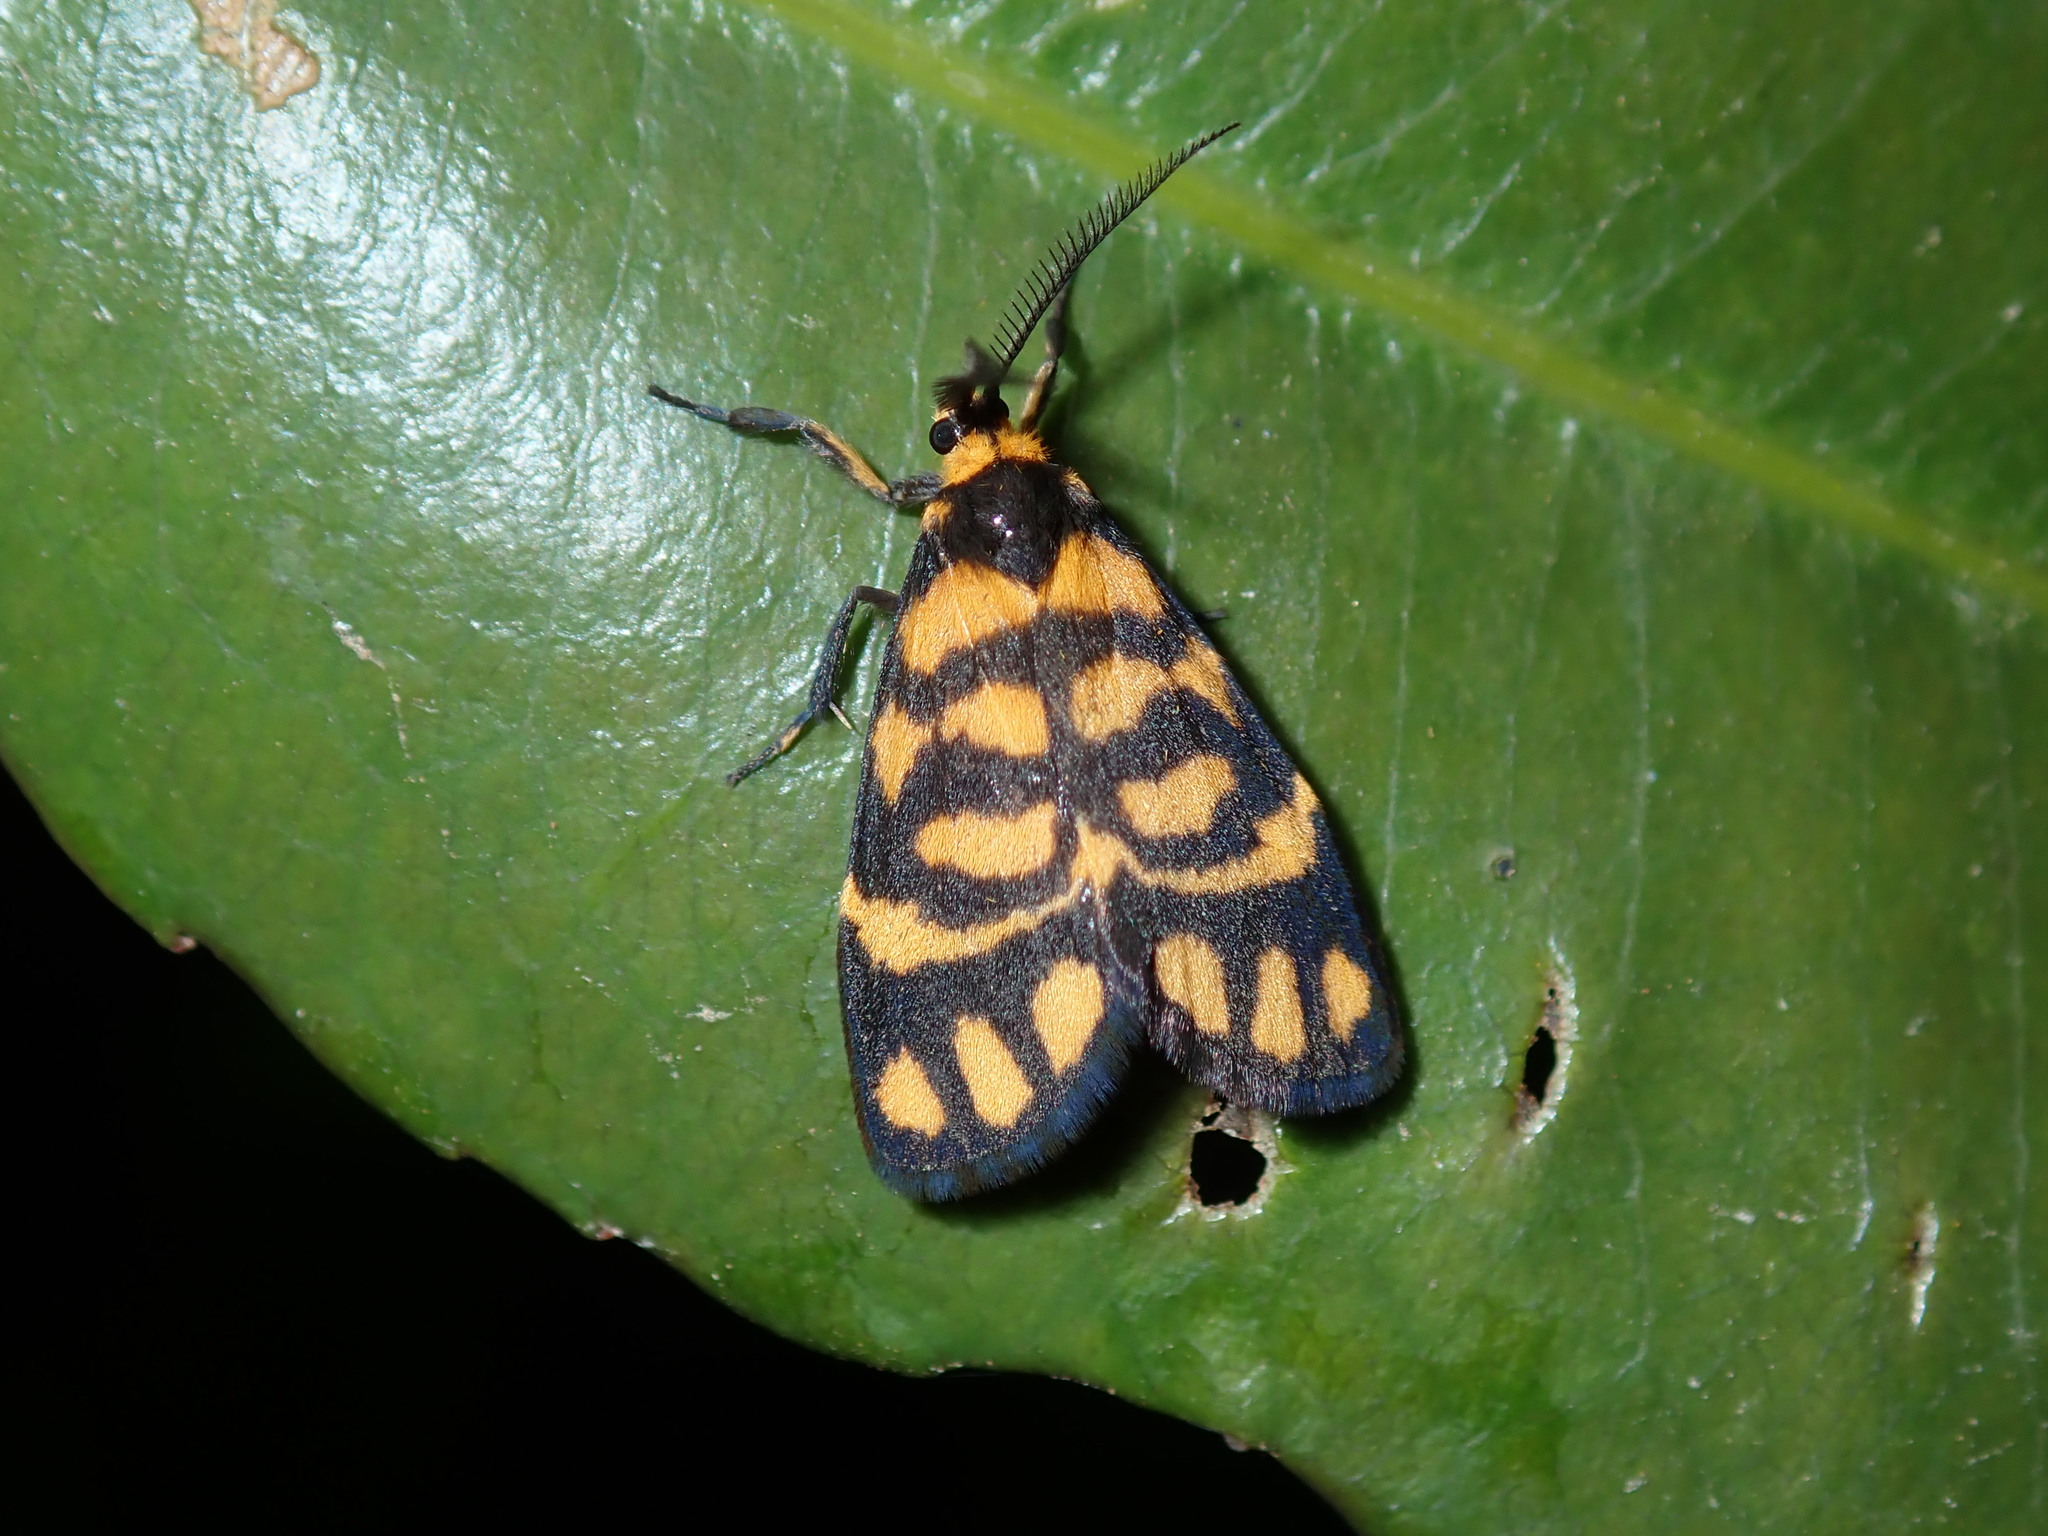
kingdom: Animalia
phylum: Arthropoda
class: Insecta
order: Lepidoptera
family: Erebidae
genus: Asura
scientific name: Asura lydia
